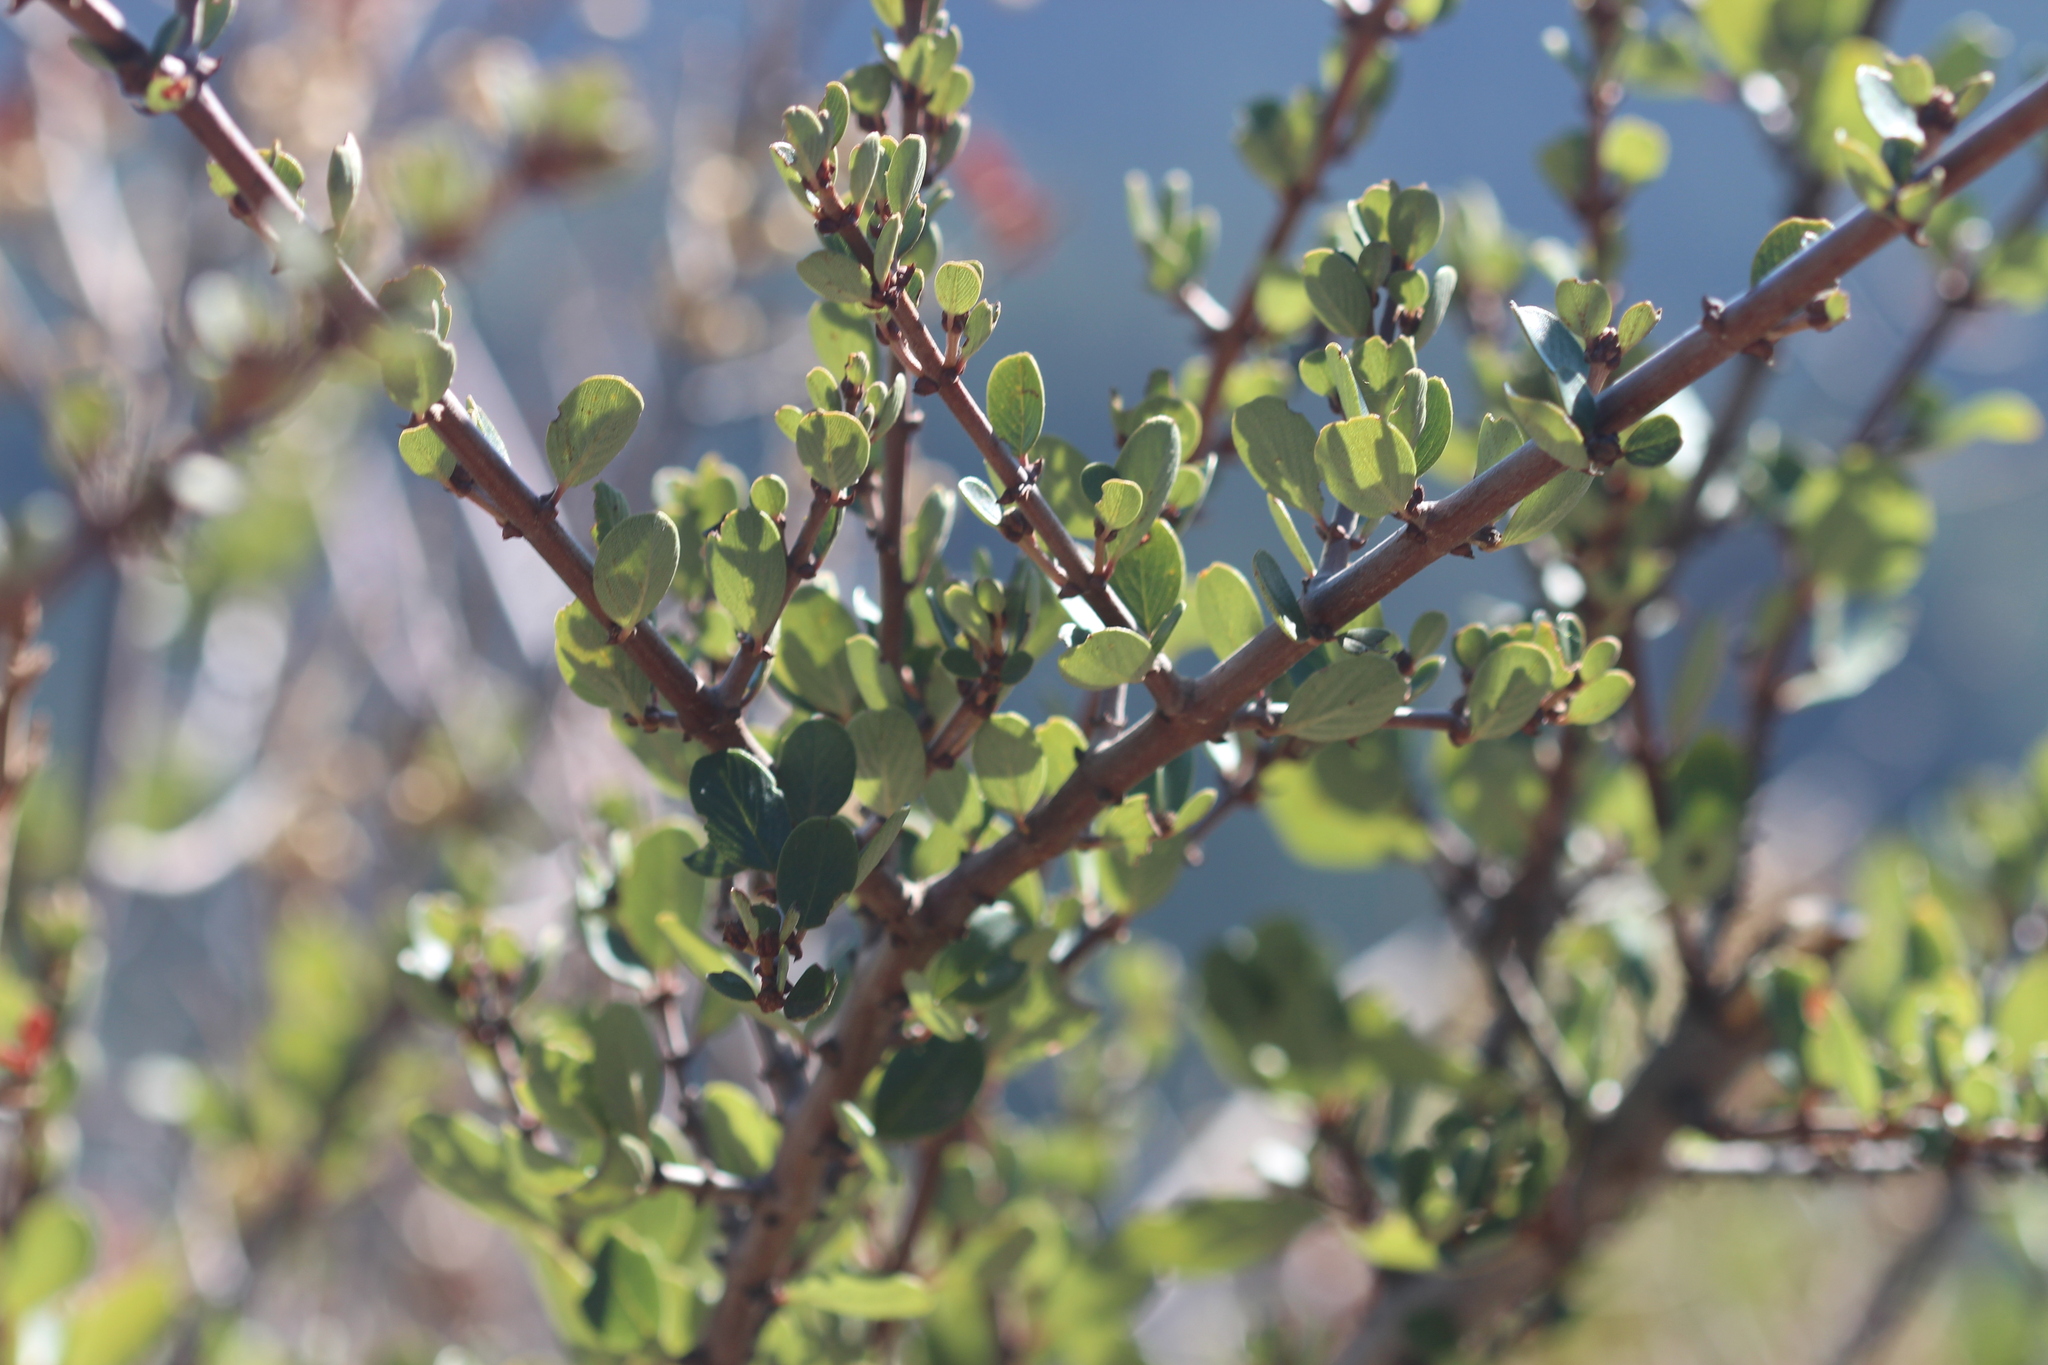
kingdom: Plantae
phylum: Tracheophyta
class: Magnoliopsida
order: Rosales
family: Rhamnaceae
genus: Ceanothus
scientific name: Ceanothus cuneatus
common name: Cuneate ceanothus
